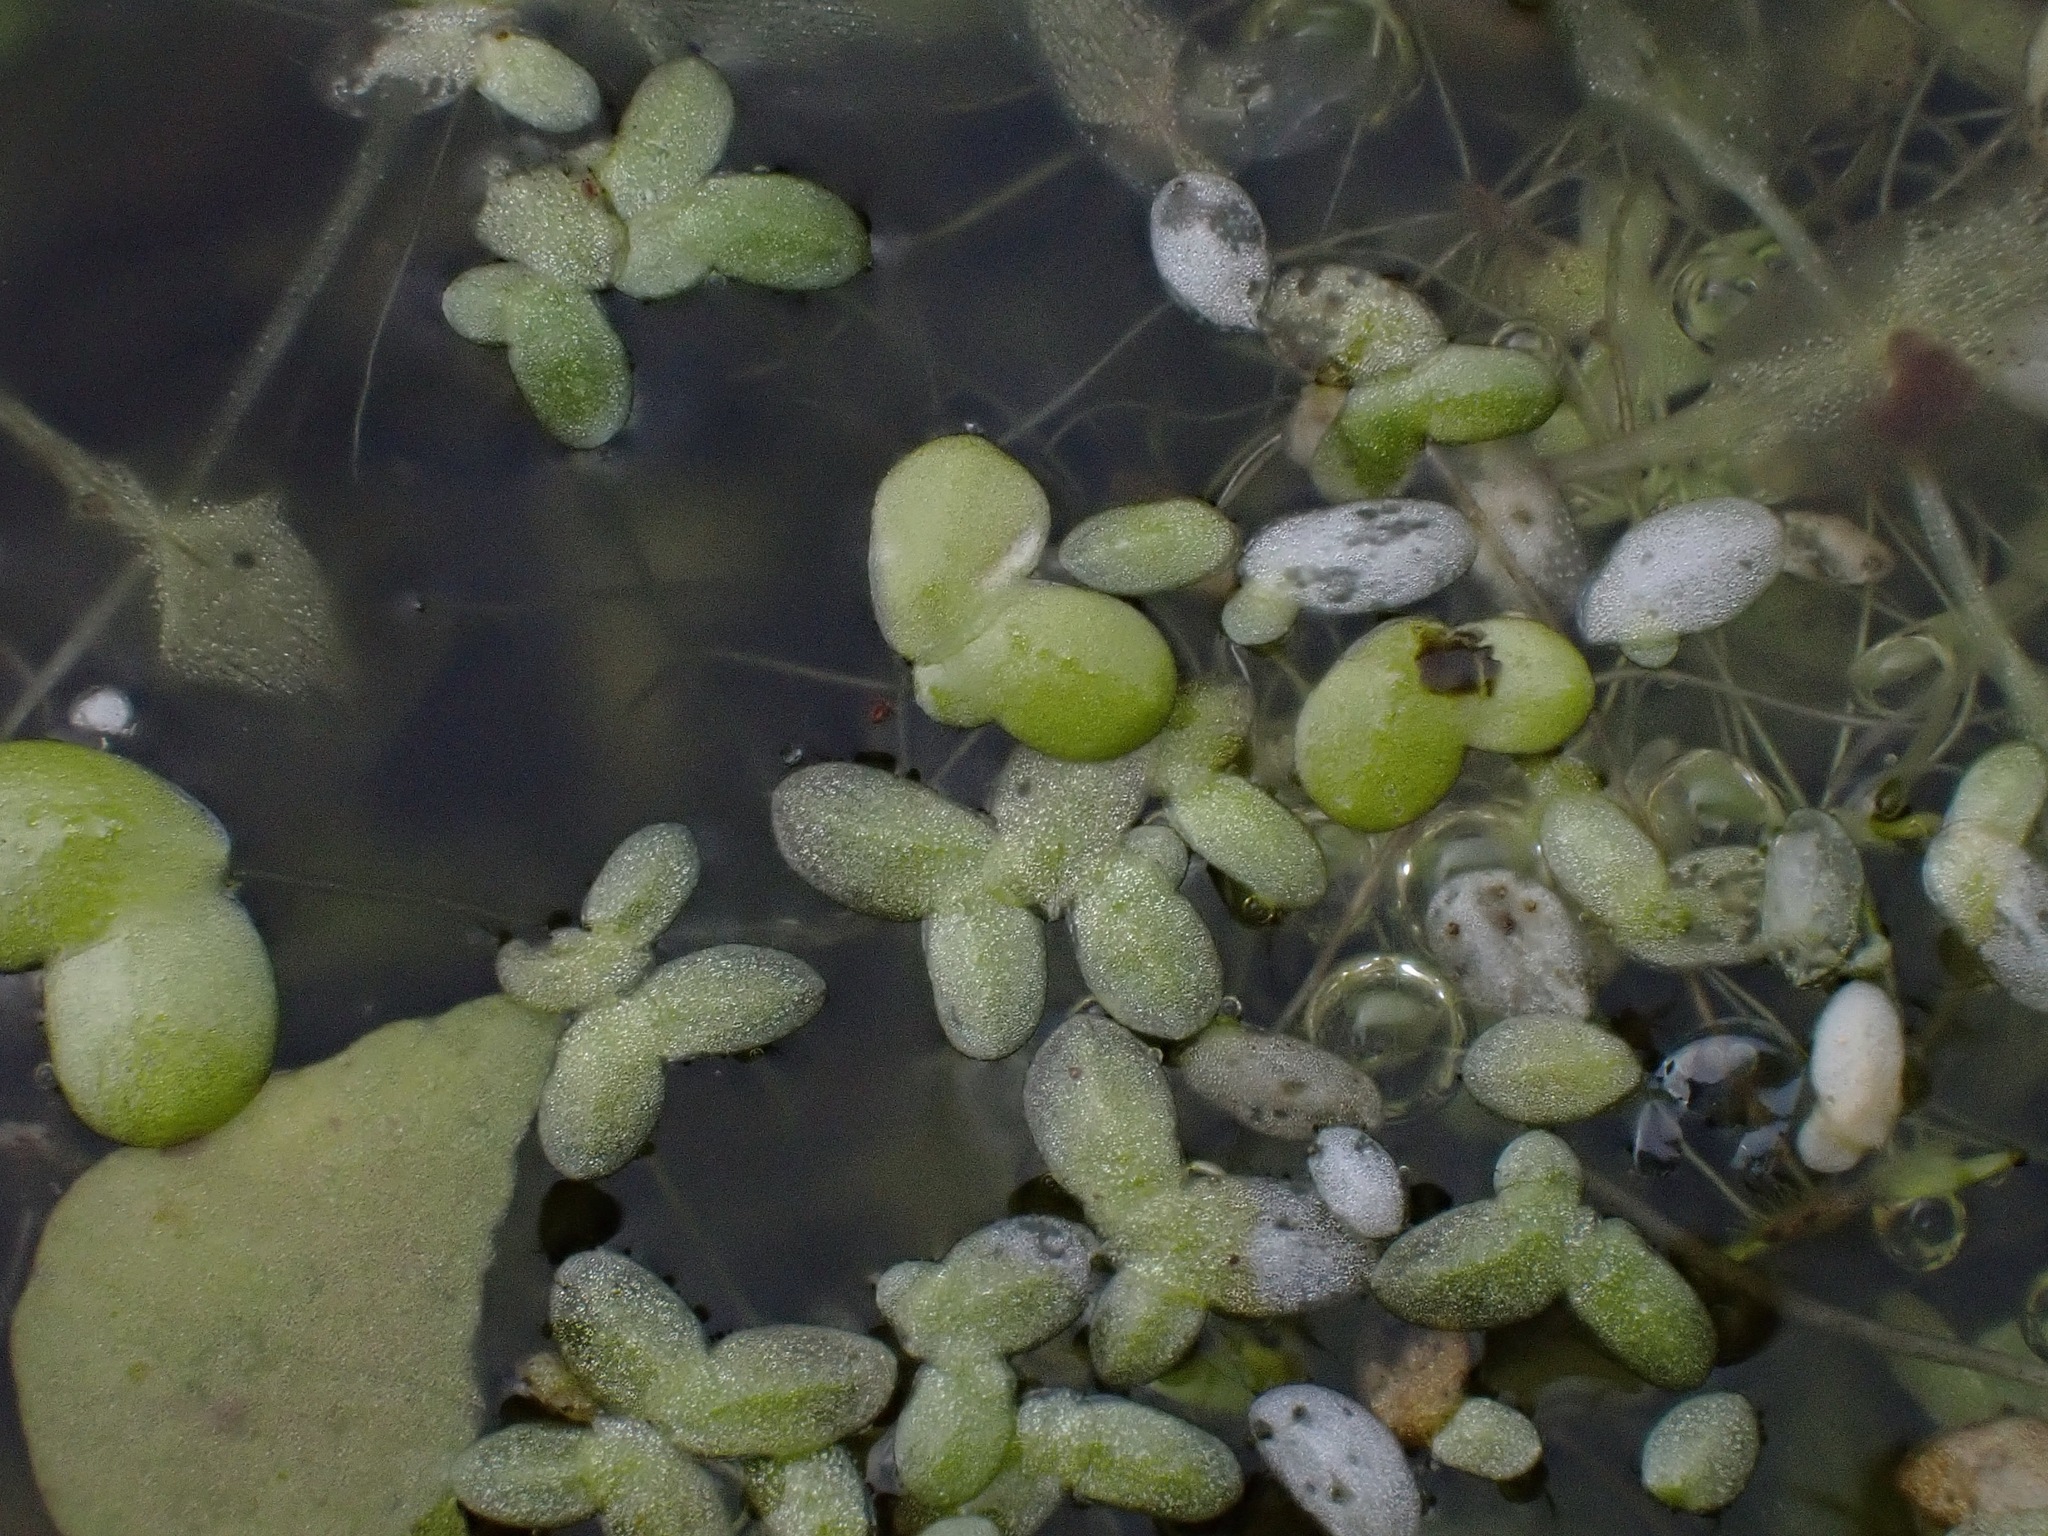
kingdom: Plantae
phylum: Tracheophyta
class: Liliopsida
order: Alismatales
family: Araceae
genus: Lemna
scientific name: Lemna minor
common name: Common duckweed
